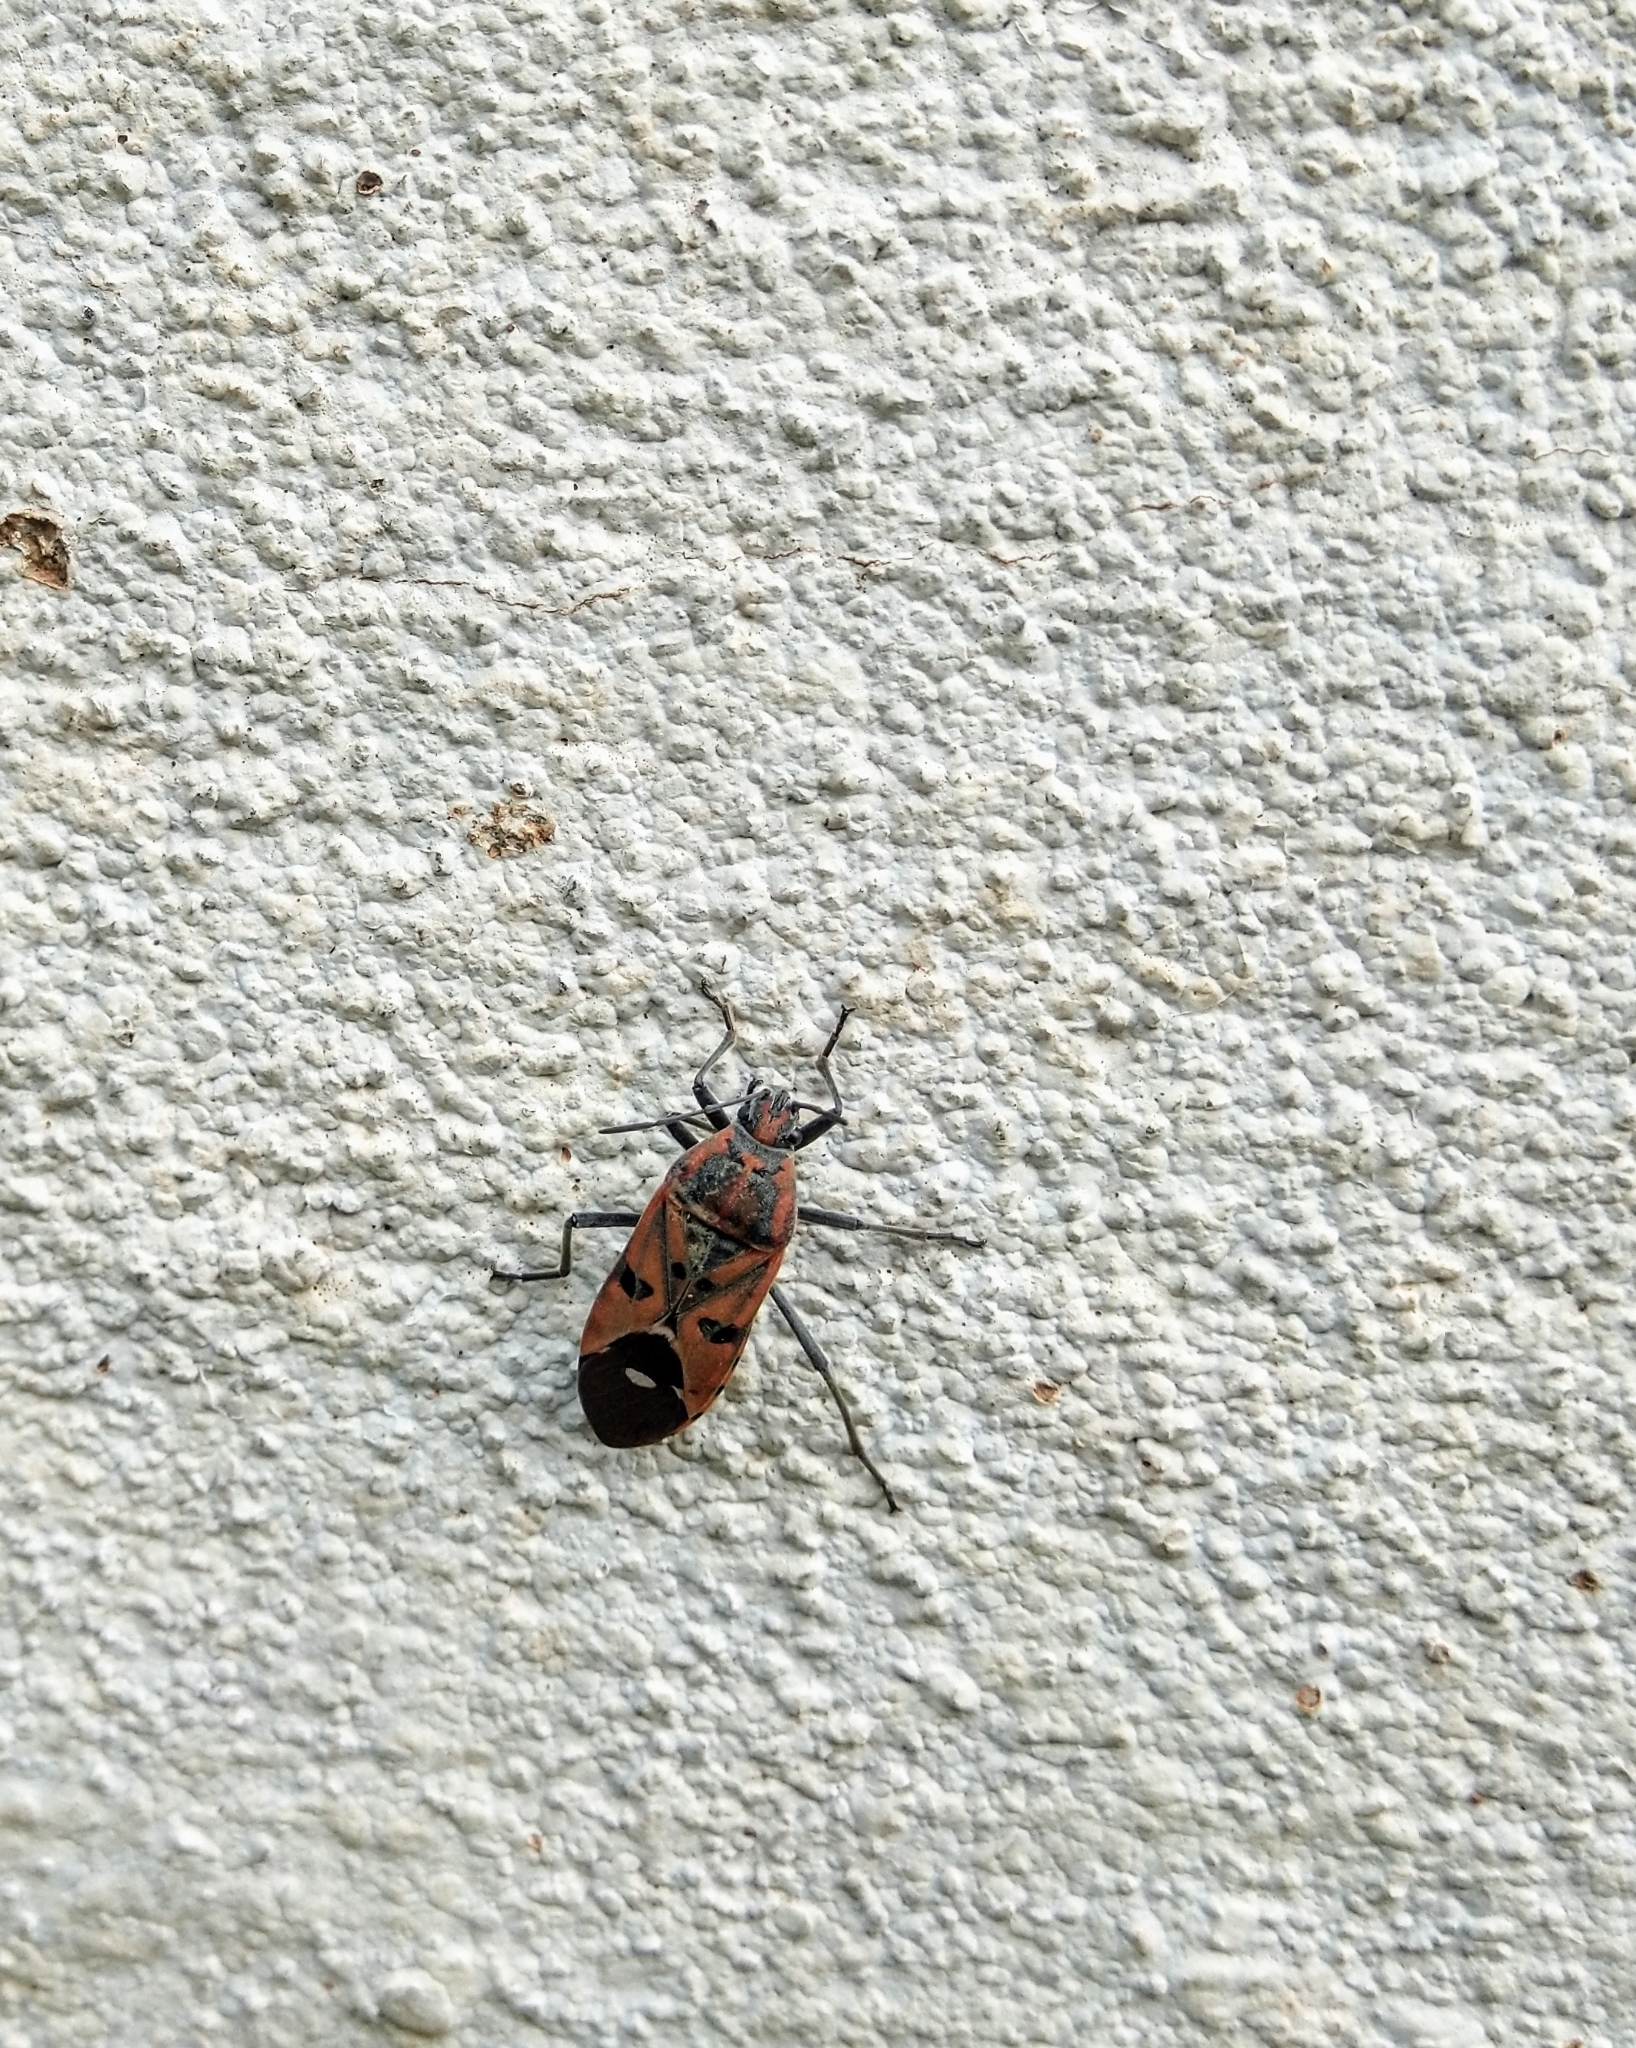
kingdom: Animalia
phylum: Arthropoda
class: Insecta
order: Hemiptera
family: Lygaeidae
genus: Spilostethus
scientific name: Spilostethus pandurus
